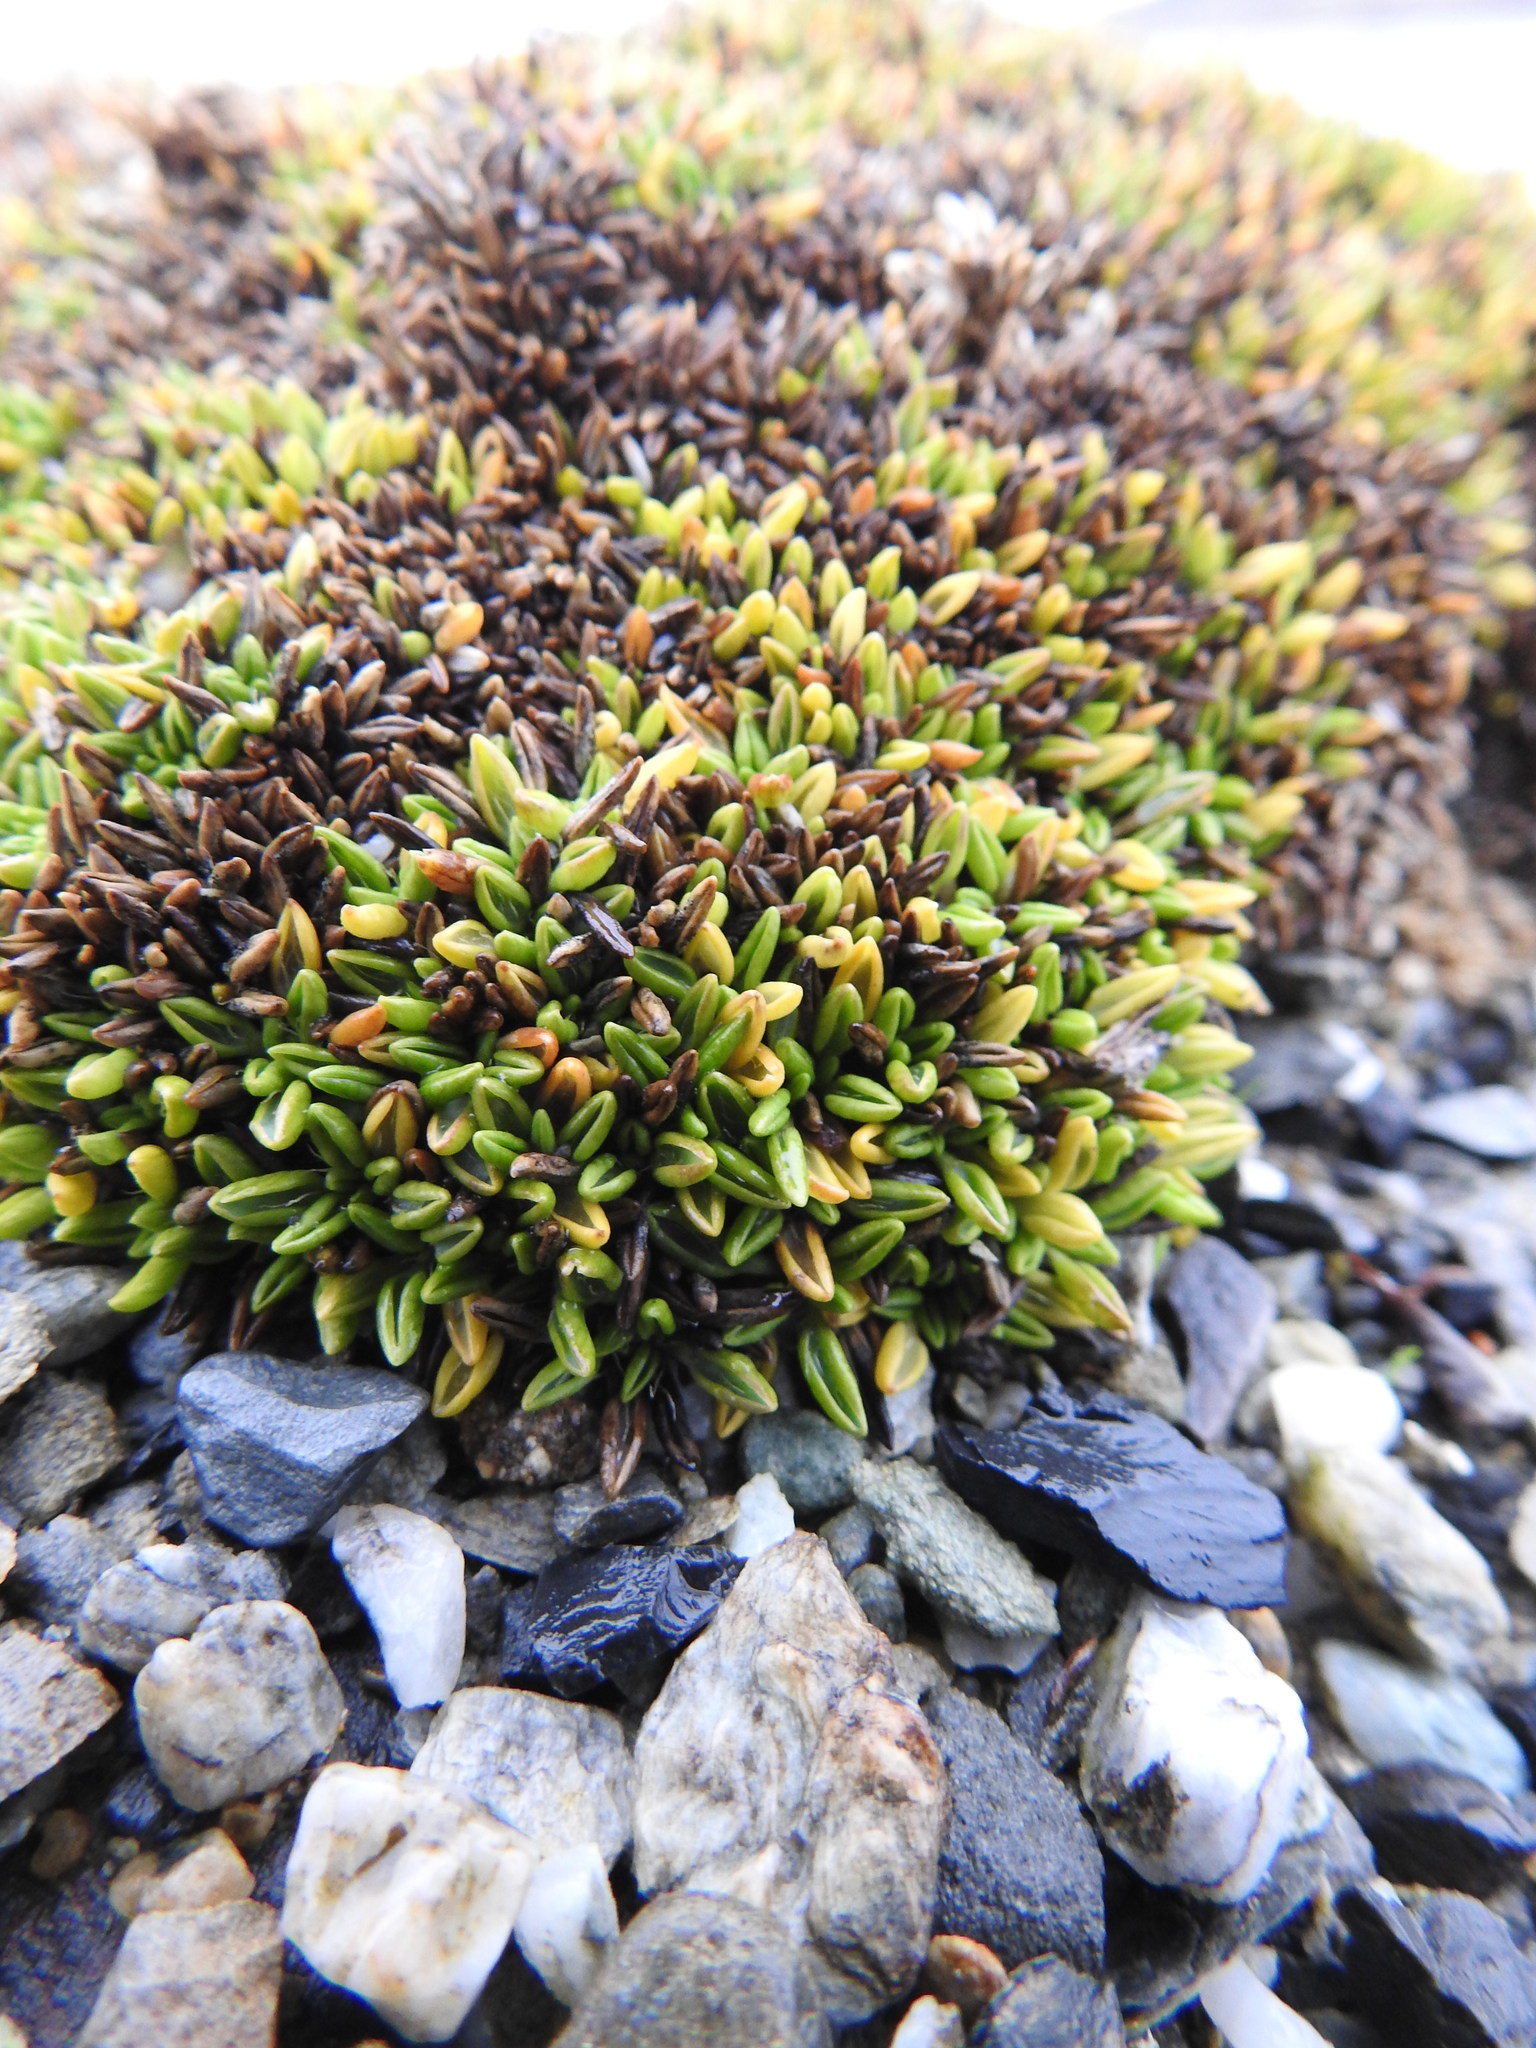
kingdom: Plantae
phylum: Tracheophyta
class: Magnoliopsida
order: Apiales
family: Apiaceae
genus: Azorella
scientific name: Azorella filamentosa
